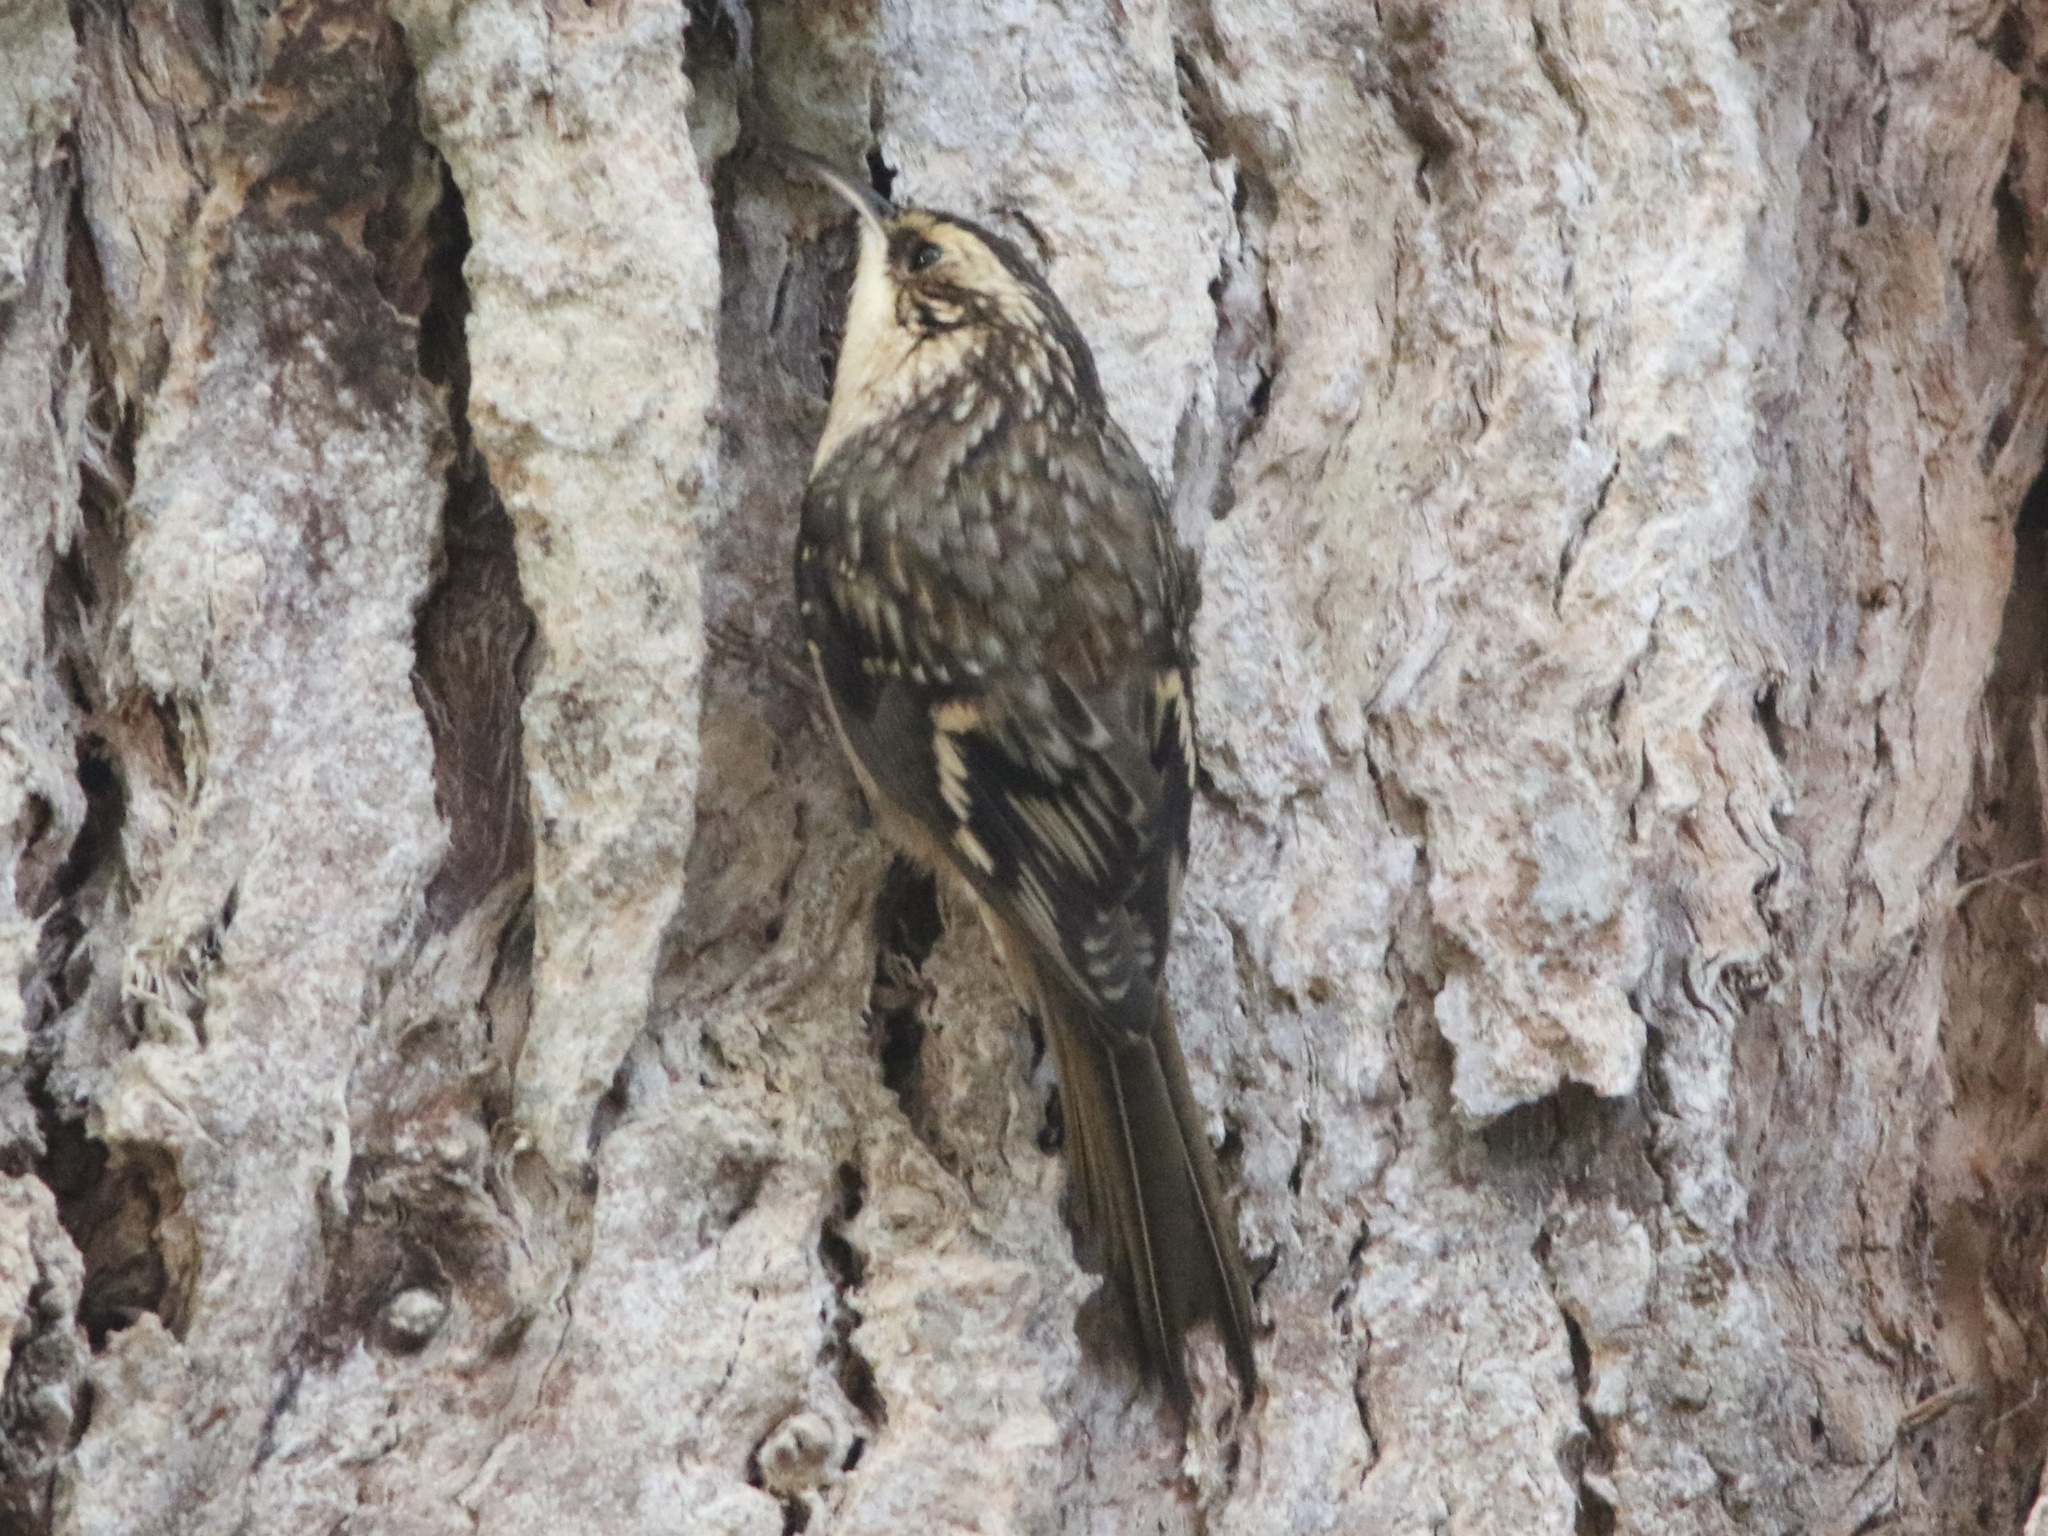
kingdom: Animalia
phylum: Chordata
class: Aves
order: Passeriformes
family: Certhiidae
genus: Certhia
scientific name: Certhia americana
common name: Brown creeper
